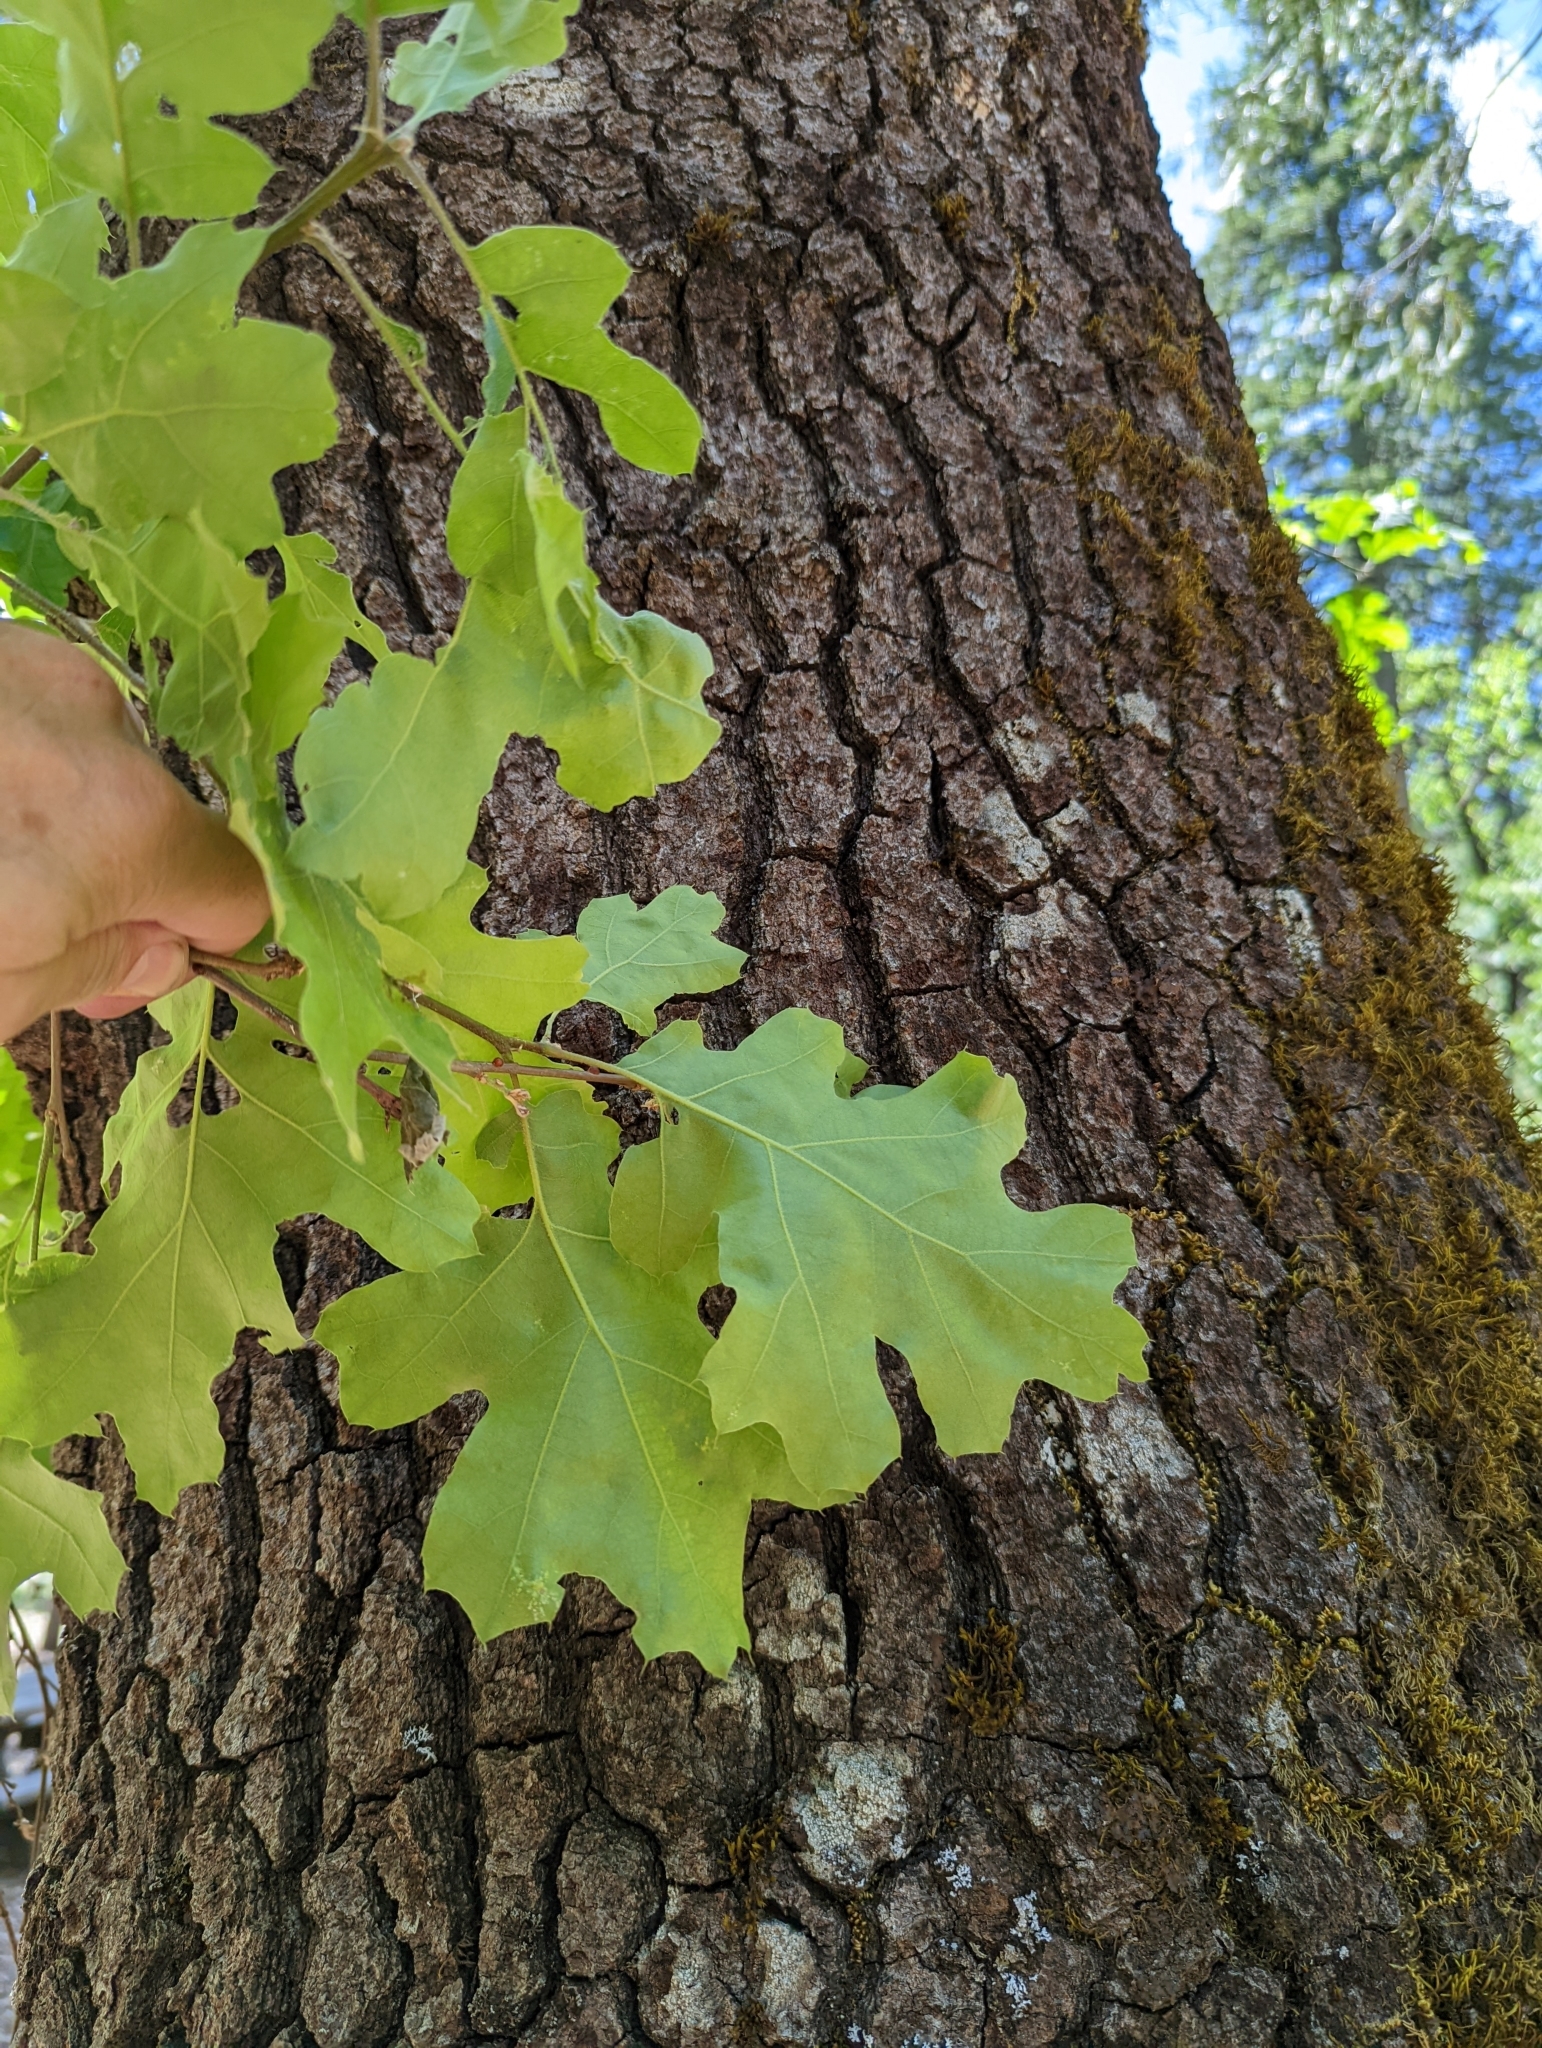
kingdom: Plantae
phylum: Tracheophyta
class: Magnoliopsida
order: Fagales
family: Fagaceae
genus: Quercus
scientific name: Quercus kelloggii
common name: California black oak
